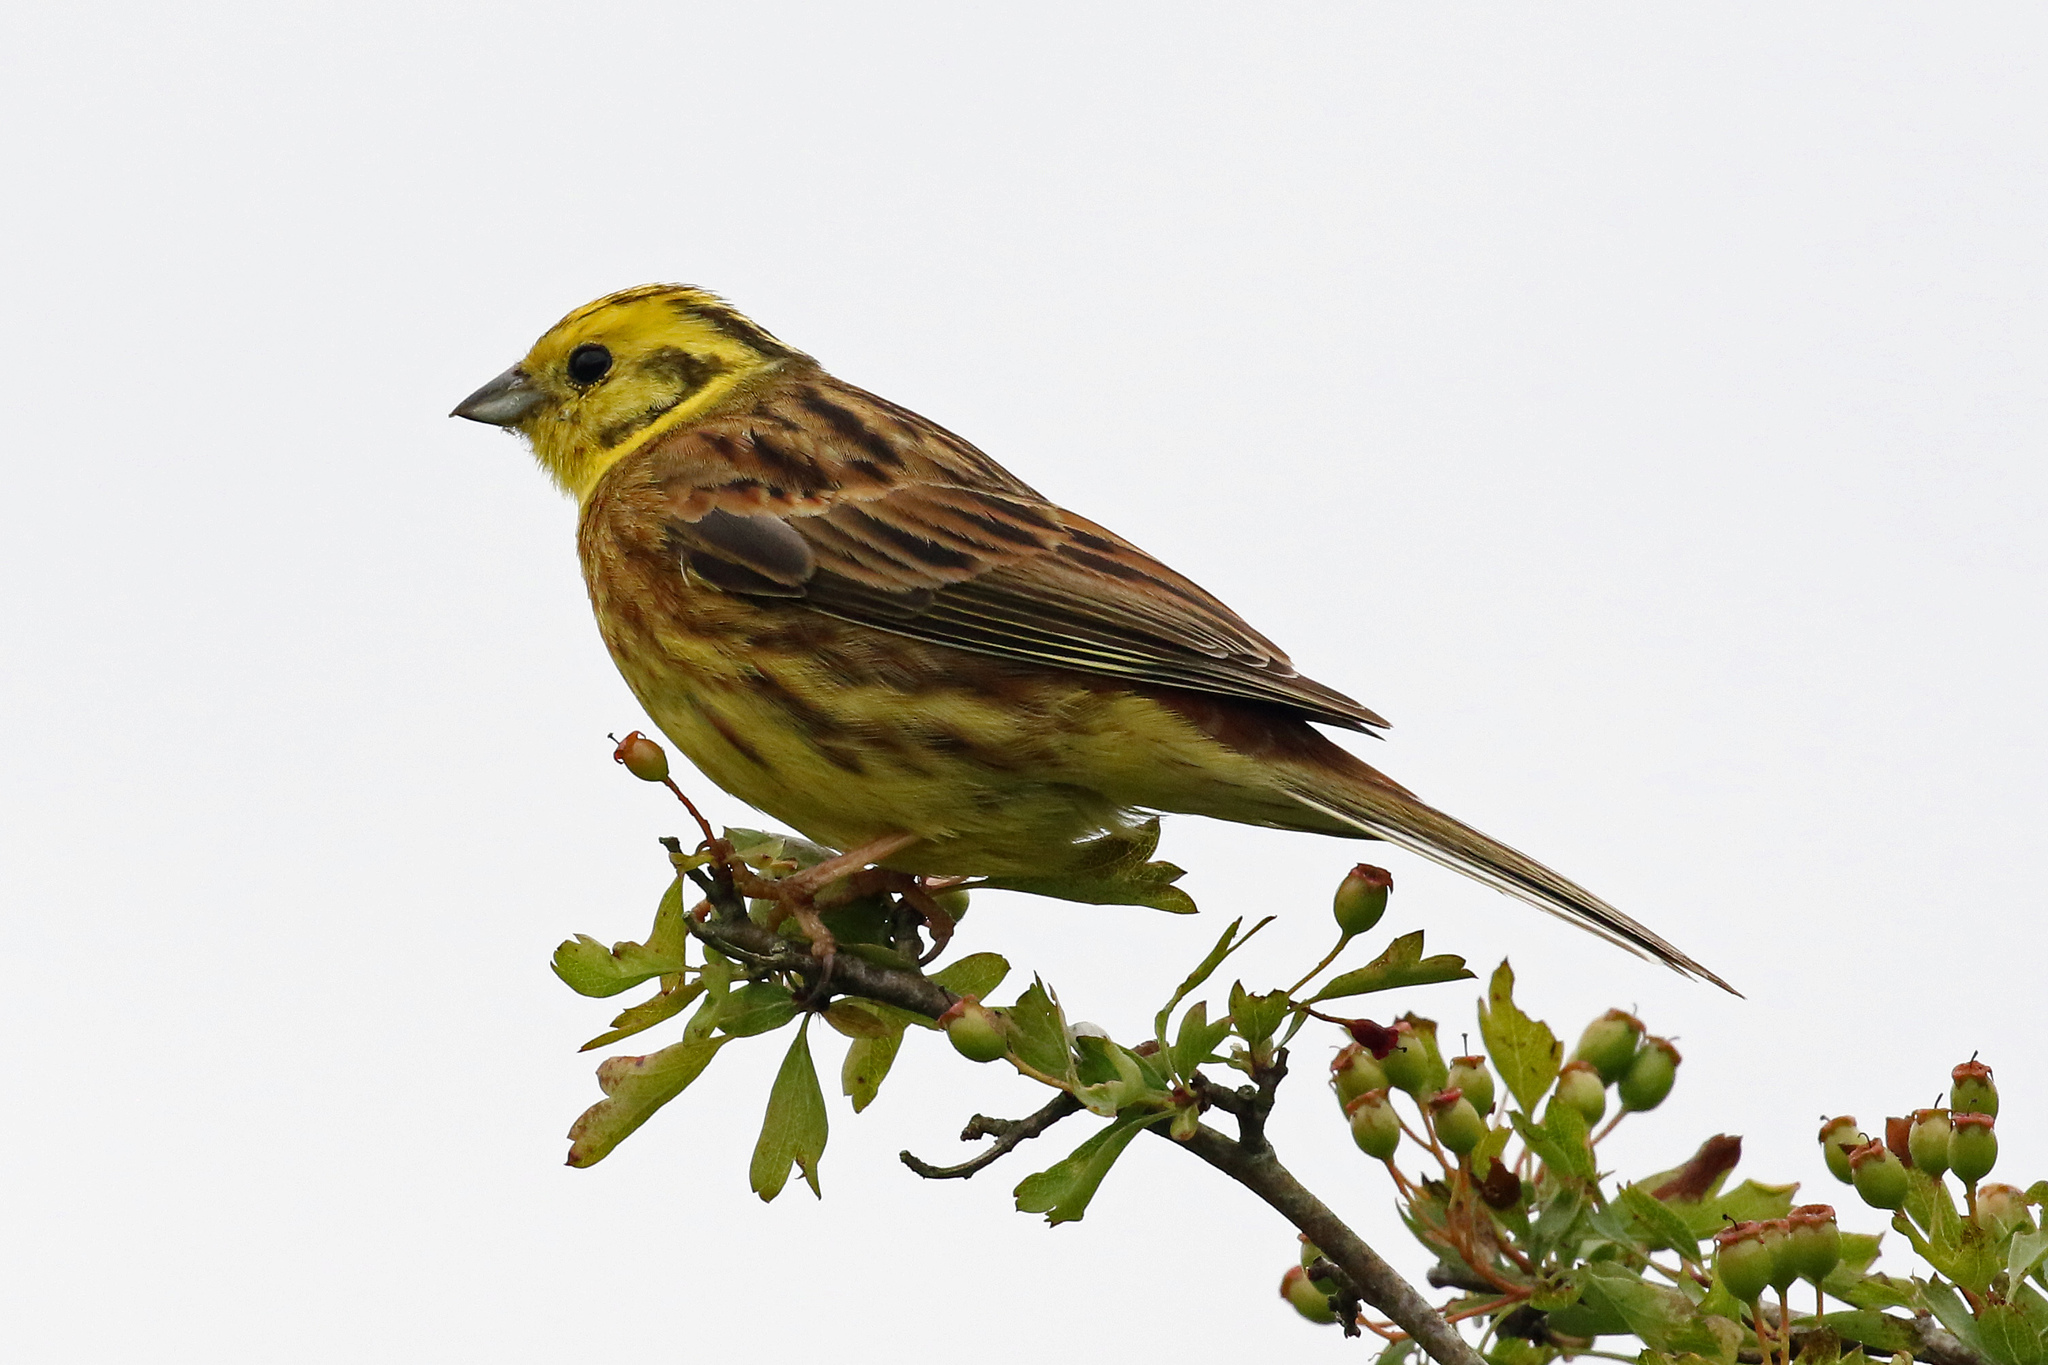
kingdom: Animalia
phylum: Chordata
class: Aves
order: Passeriformes
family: Emberizidae
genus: Emberiza
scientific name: Emberiza citrinella
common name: Yellowhammer
